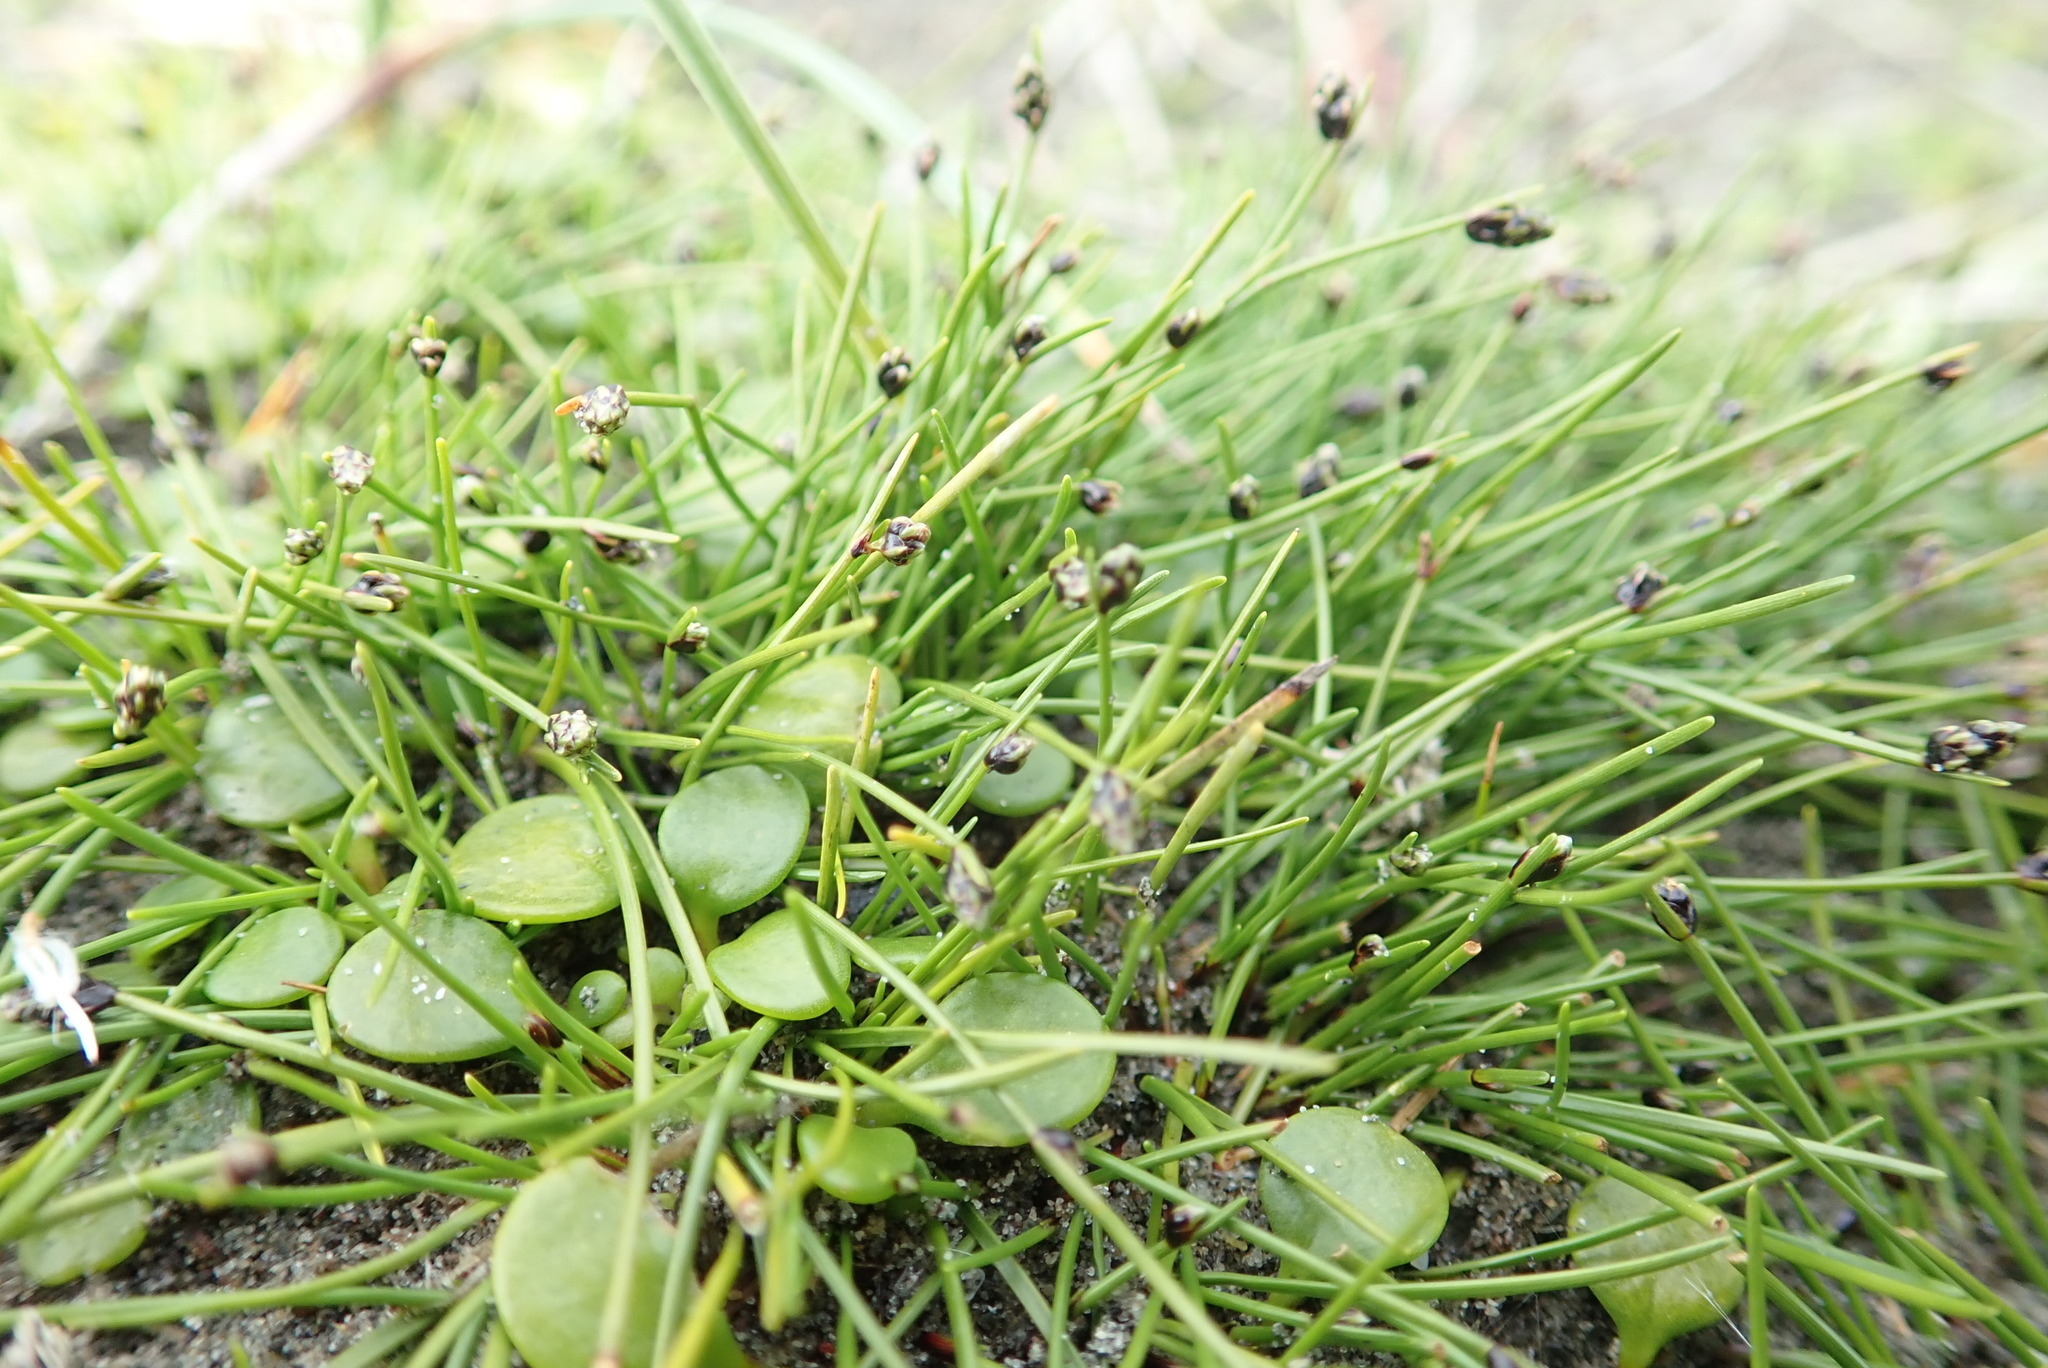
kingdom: Plantae
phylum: Tracheophyta
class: Liliopsida
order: Poales
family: Cyperaceae
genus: Isolepis
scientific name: Isolepis cernua
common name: Slender club-rush
